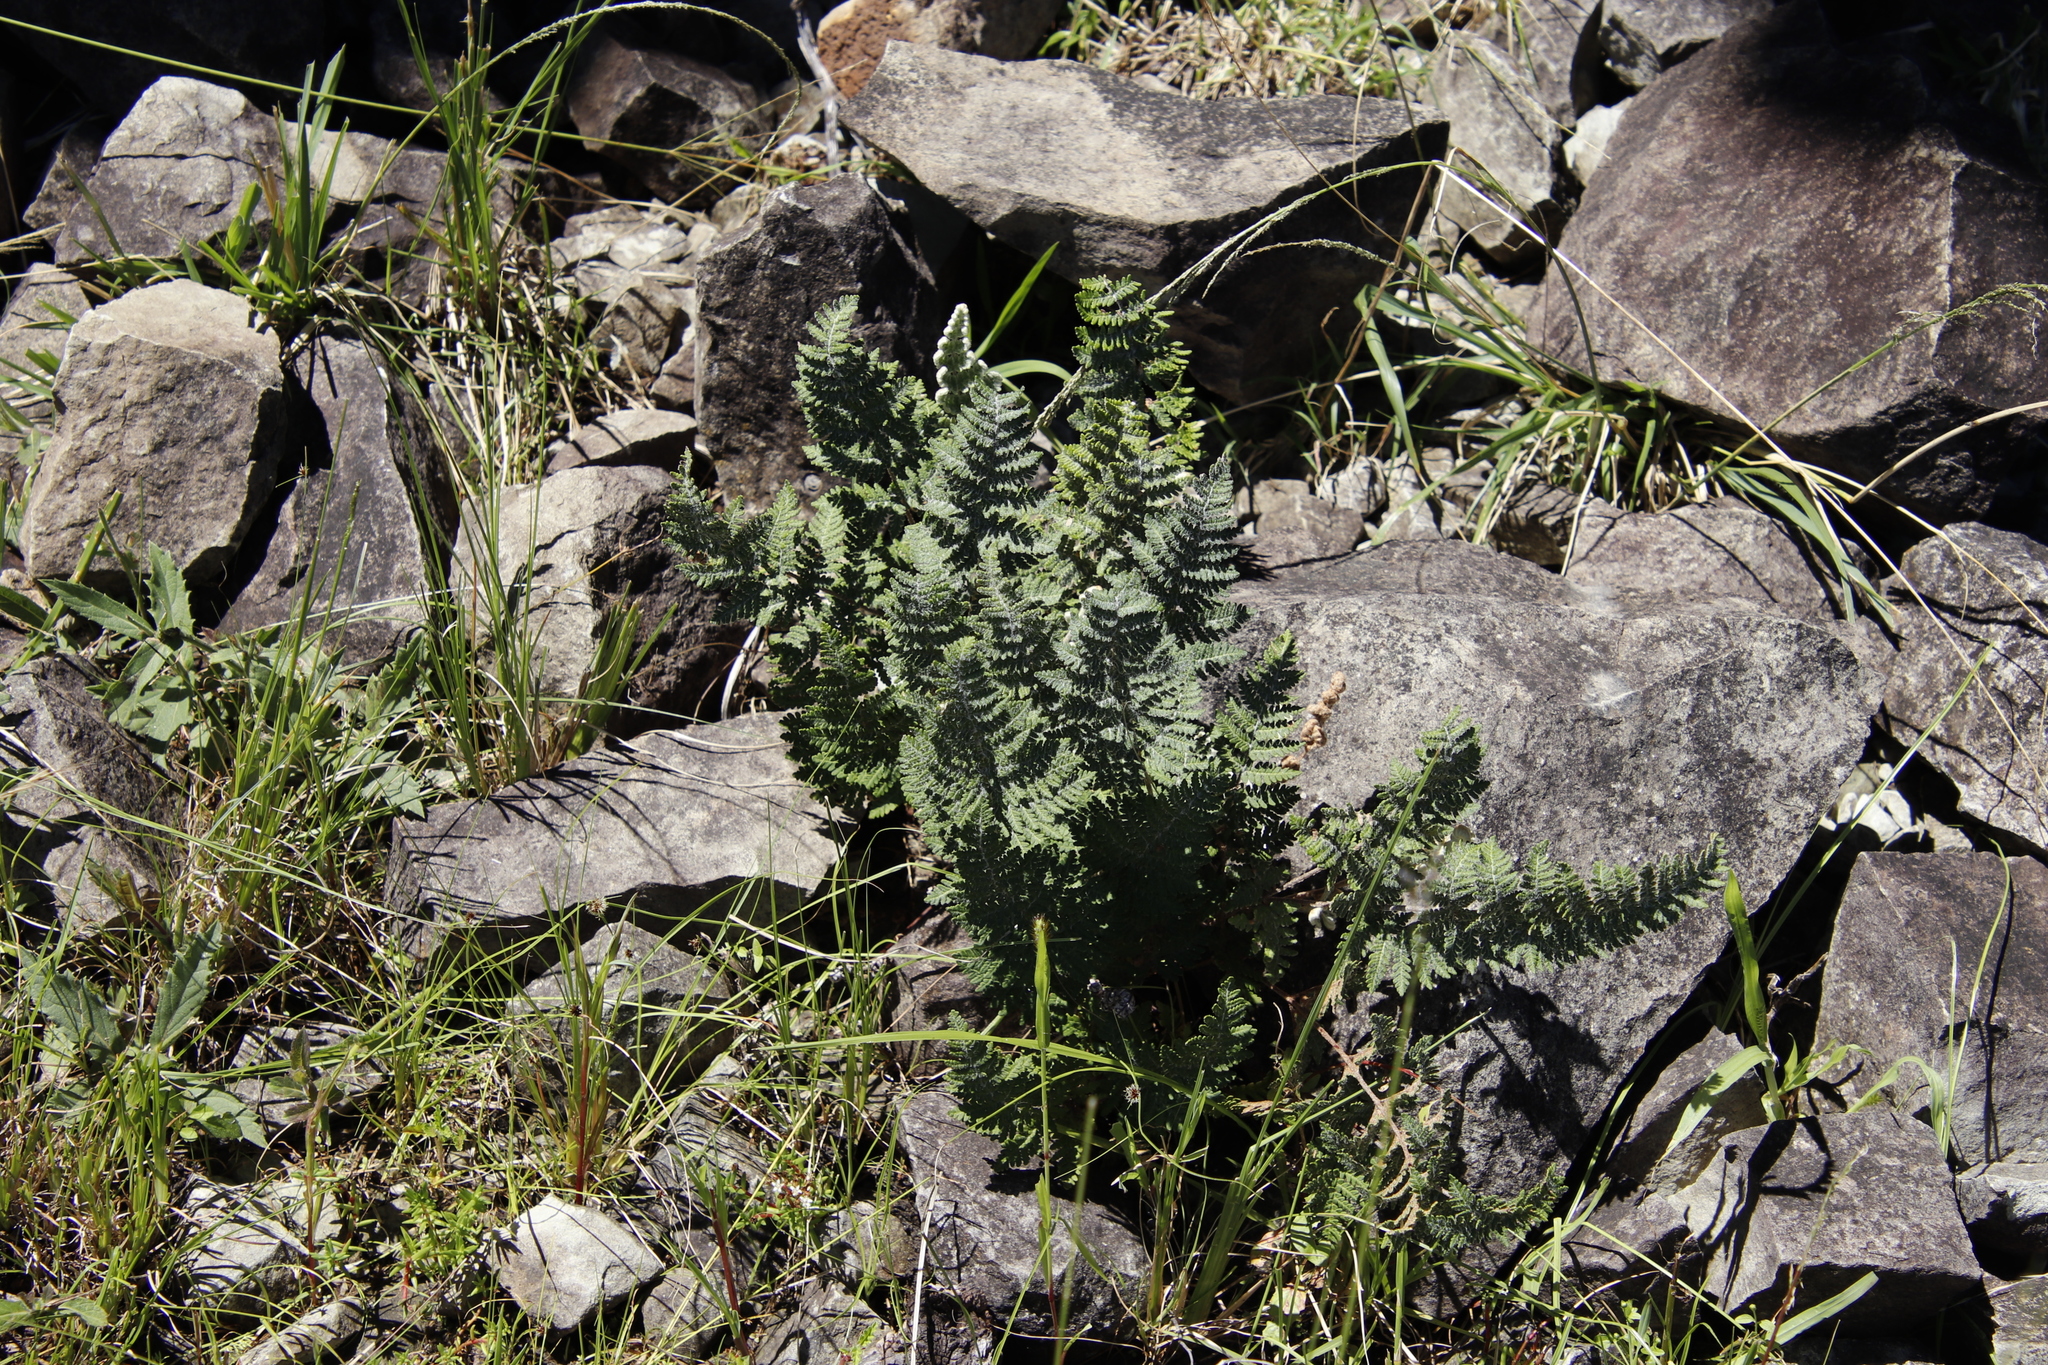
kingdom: Plantae
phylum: Tracheophyta
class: Polypodiopsida
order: Polypodiales
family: Pteridaceae
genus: Cheilanthes
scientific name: Cheilanthes eckloniana
